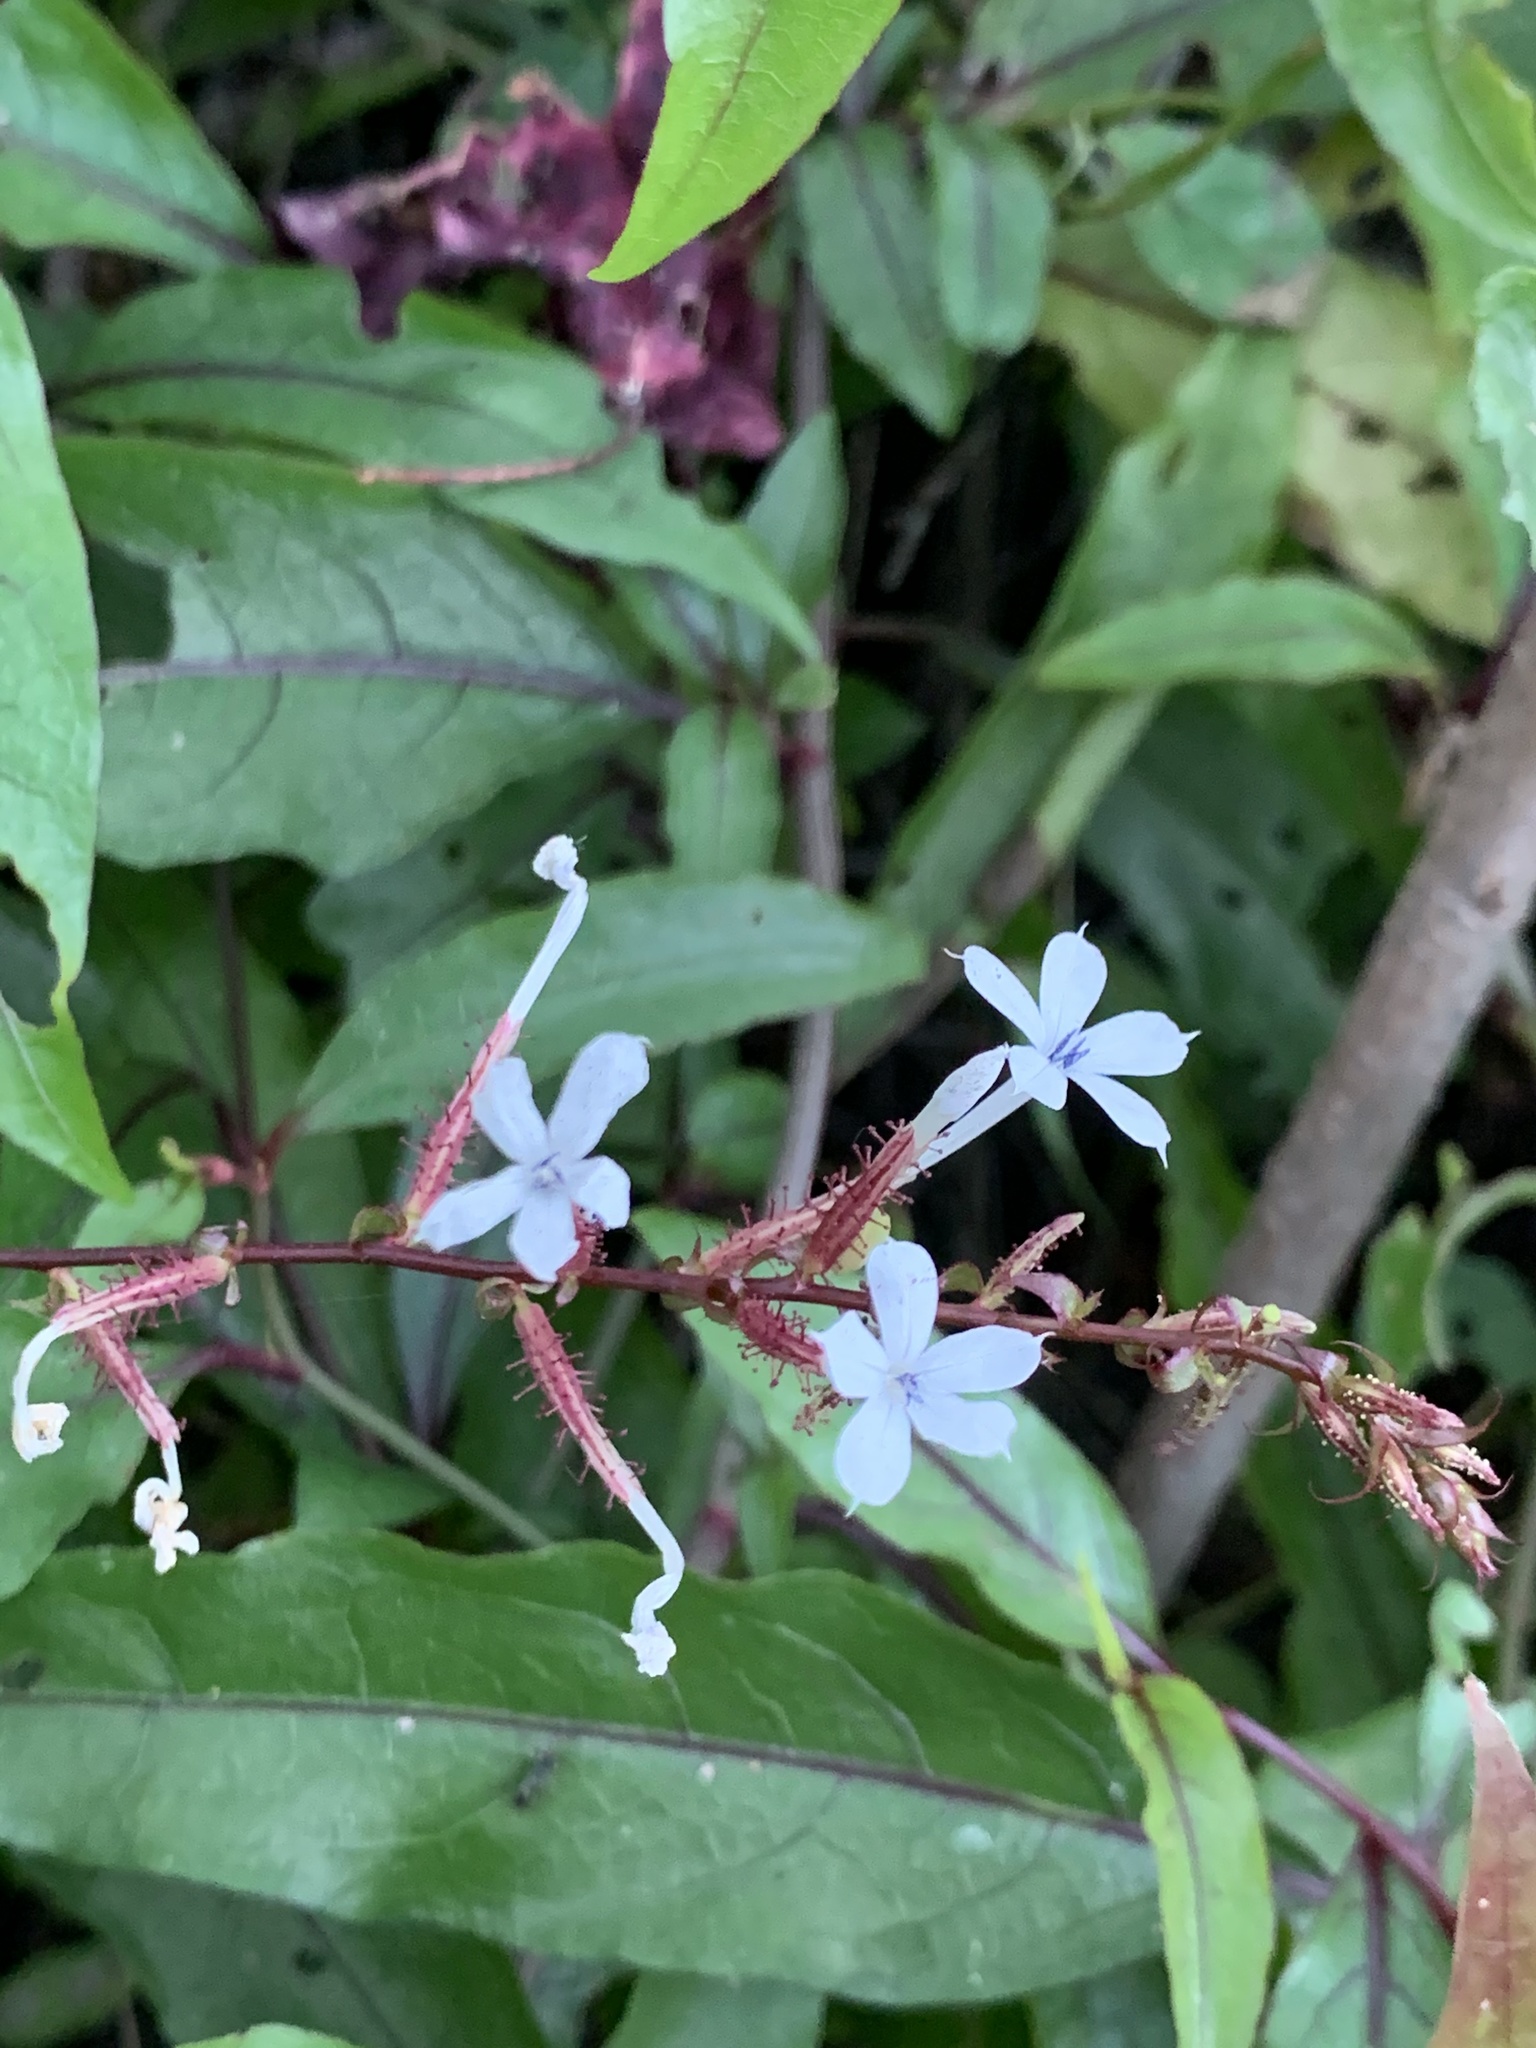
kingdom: Plantae
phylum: Tracheophyta
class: Magnoliopsida
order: Caryophyllales
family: Plumbaginaceae
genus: Plumbago
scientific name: Plumbago zeylanica
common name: Doctorbush
